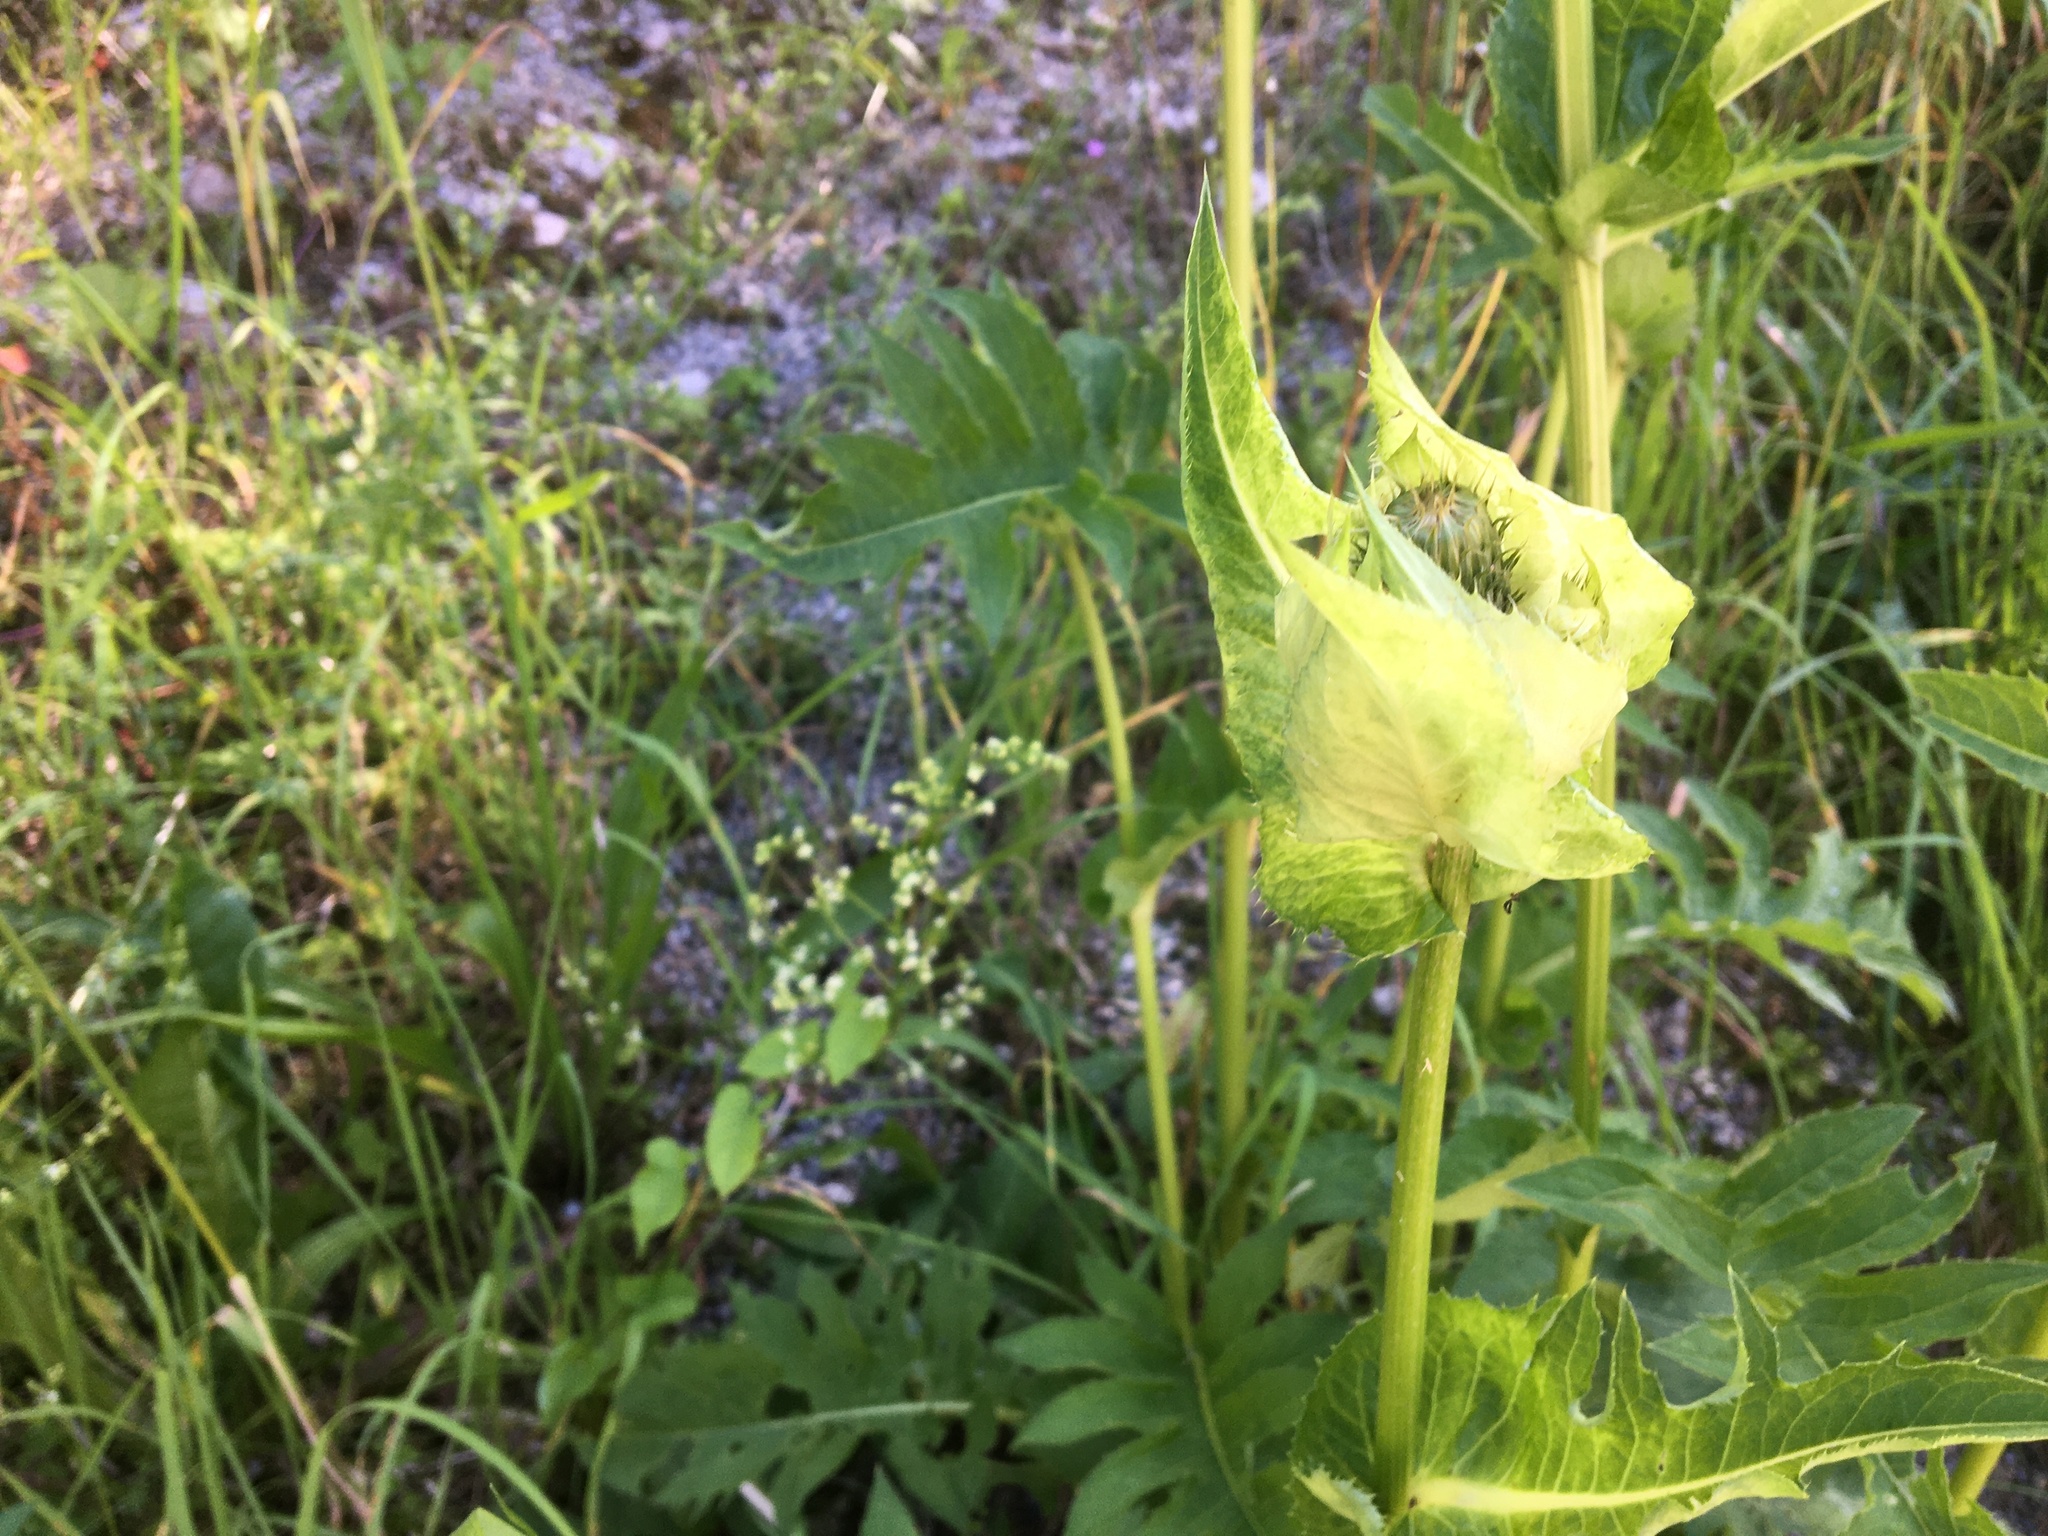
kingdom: Plantae
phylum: Tracheophyta
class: Magnoliopsida
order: Asterales
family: Asteraceae
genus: Cirsium
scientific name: Cirsium oleraceum
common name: Cabbage thistle
